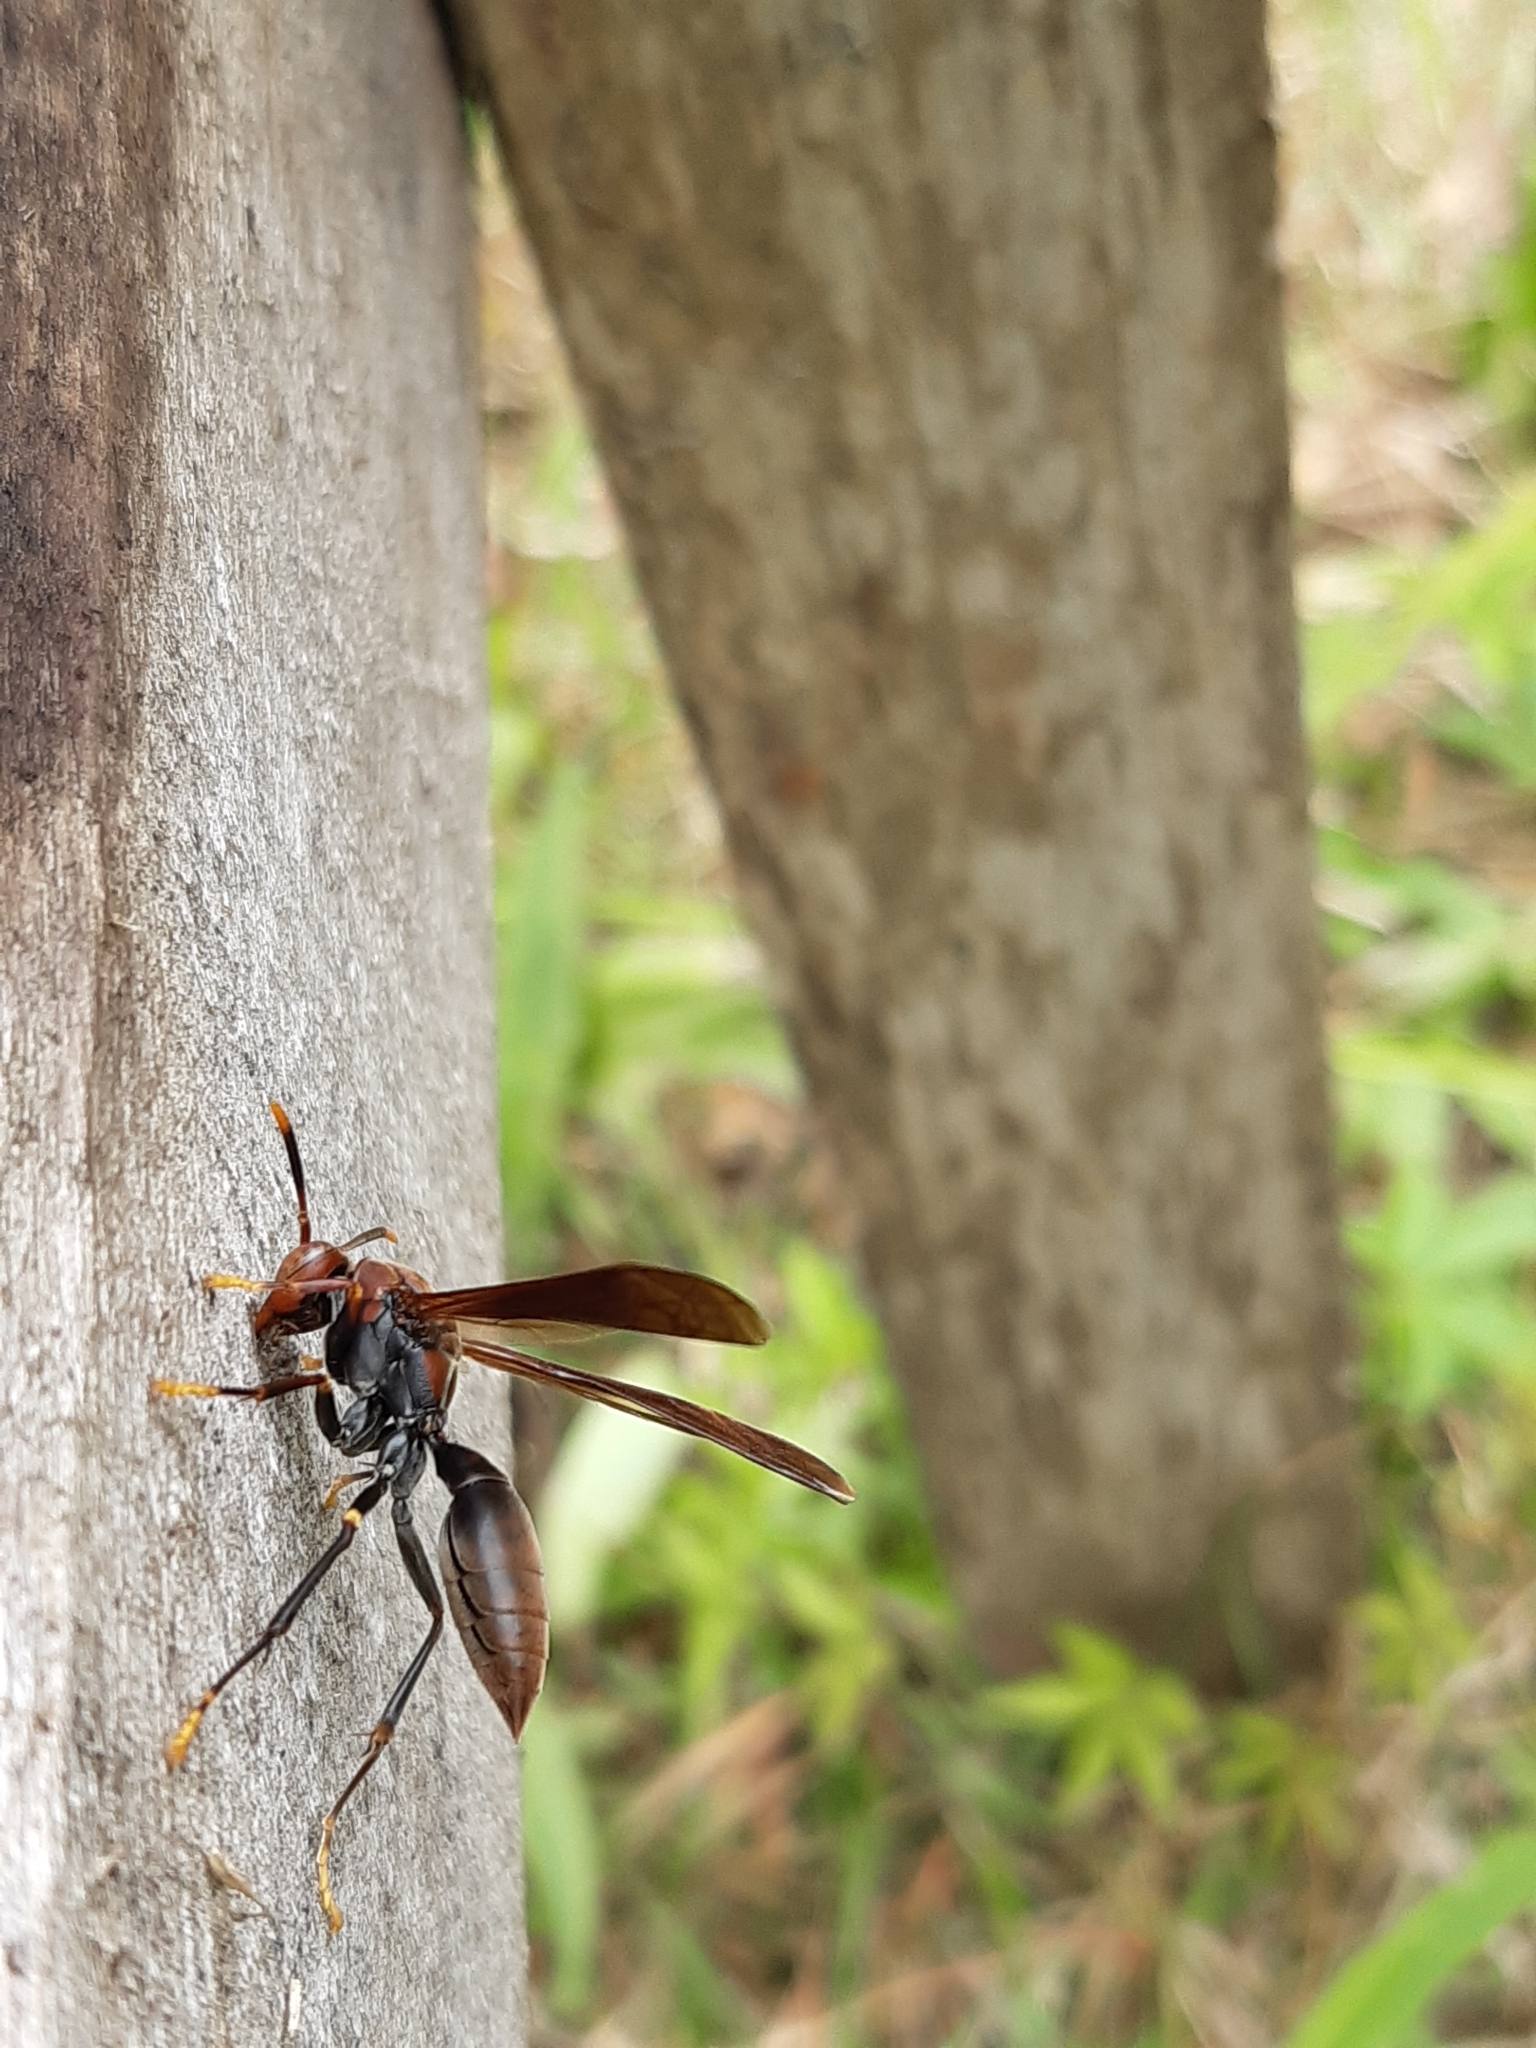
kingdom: Animalia
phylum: Arthropoda
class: Insecta
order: Hymenoptera
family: Pompilidae
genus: Aphanilopterus
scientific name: Aphanilopterus
